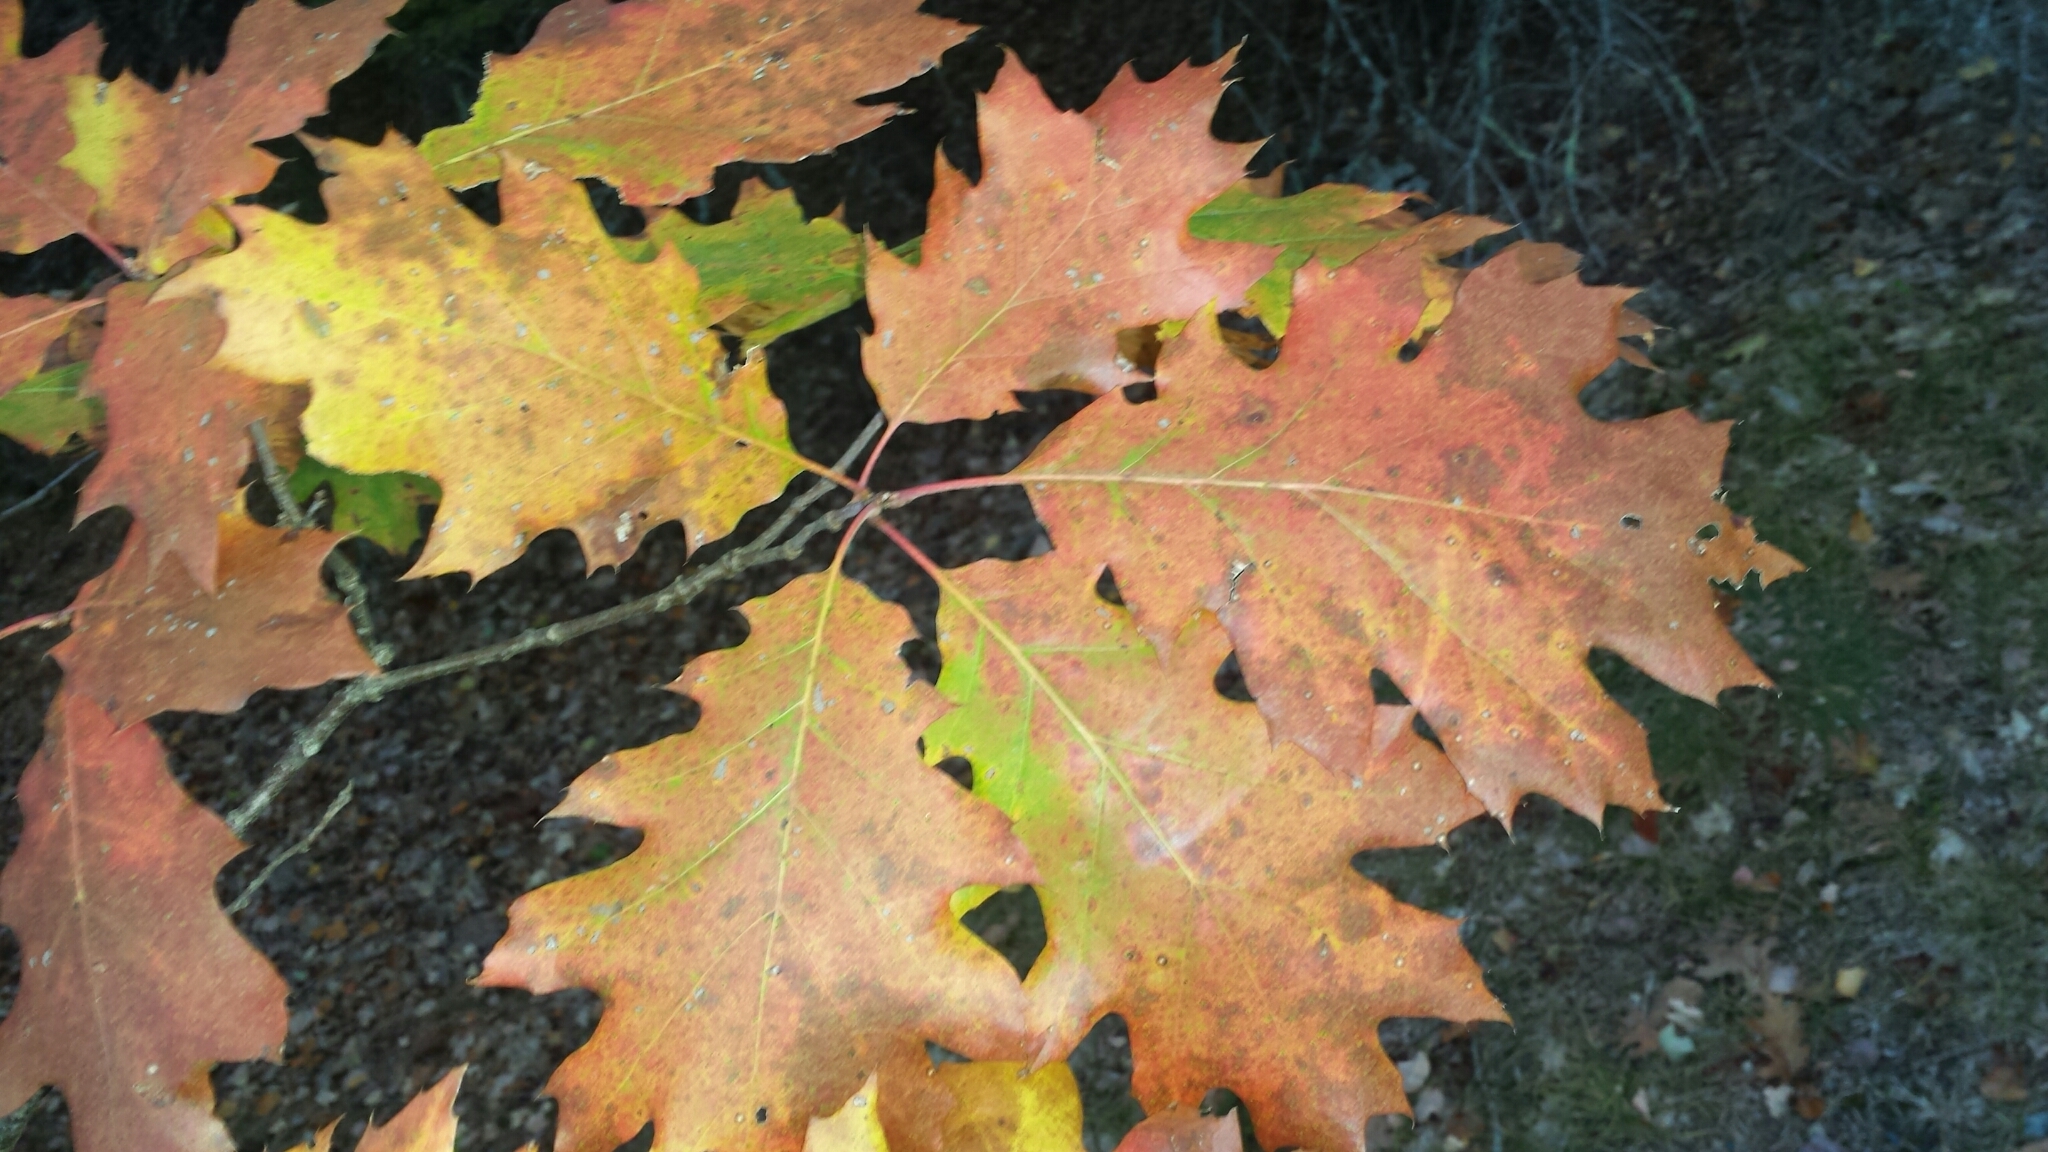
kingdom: Plantae
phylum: Tracheophyta
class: Magnoliopsida
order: Fagales
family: Fagaceae
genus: Quercus
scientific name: Quercus rubra
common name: Red oak
